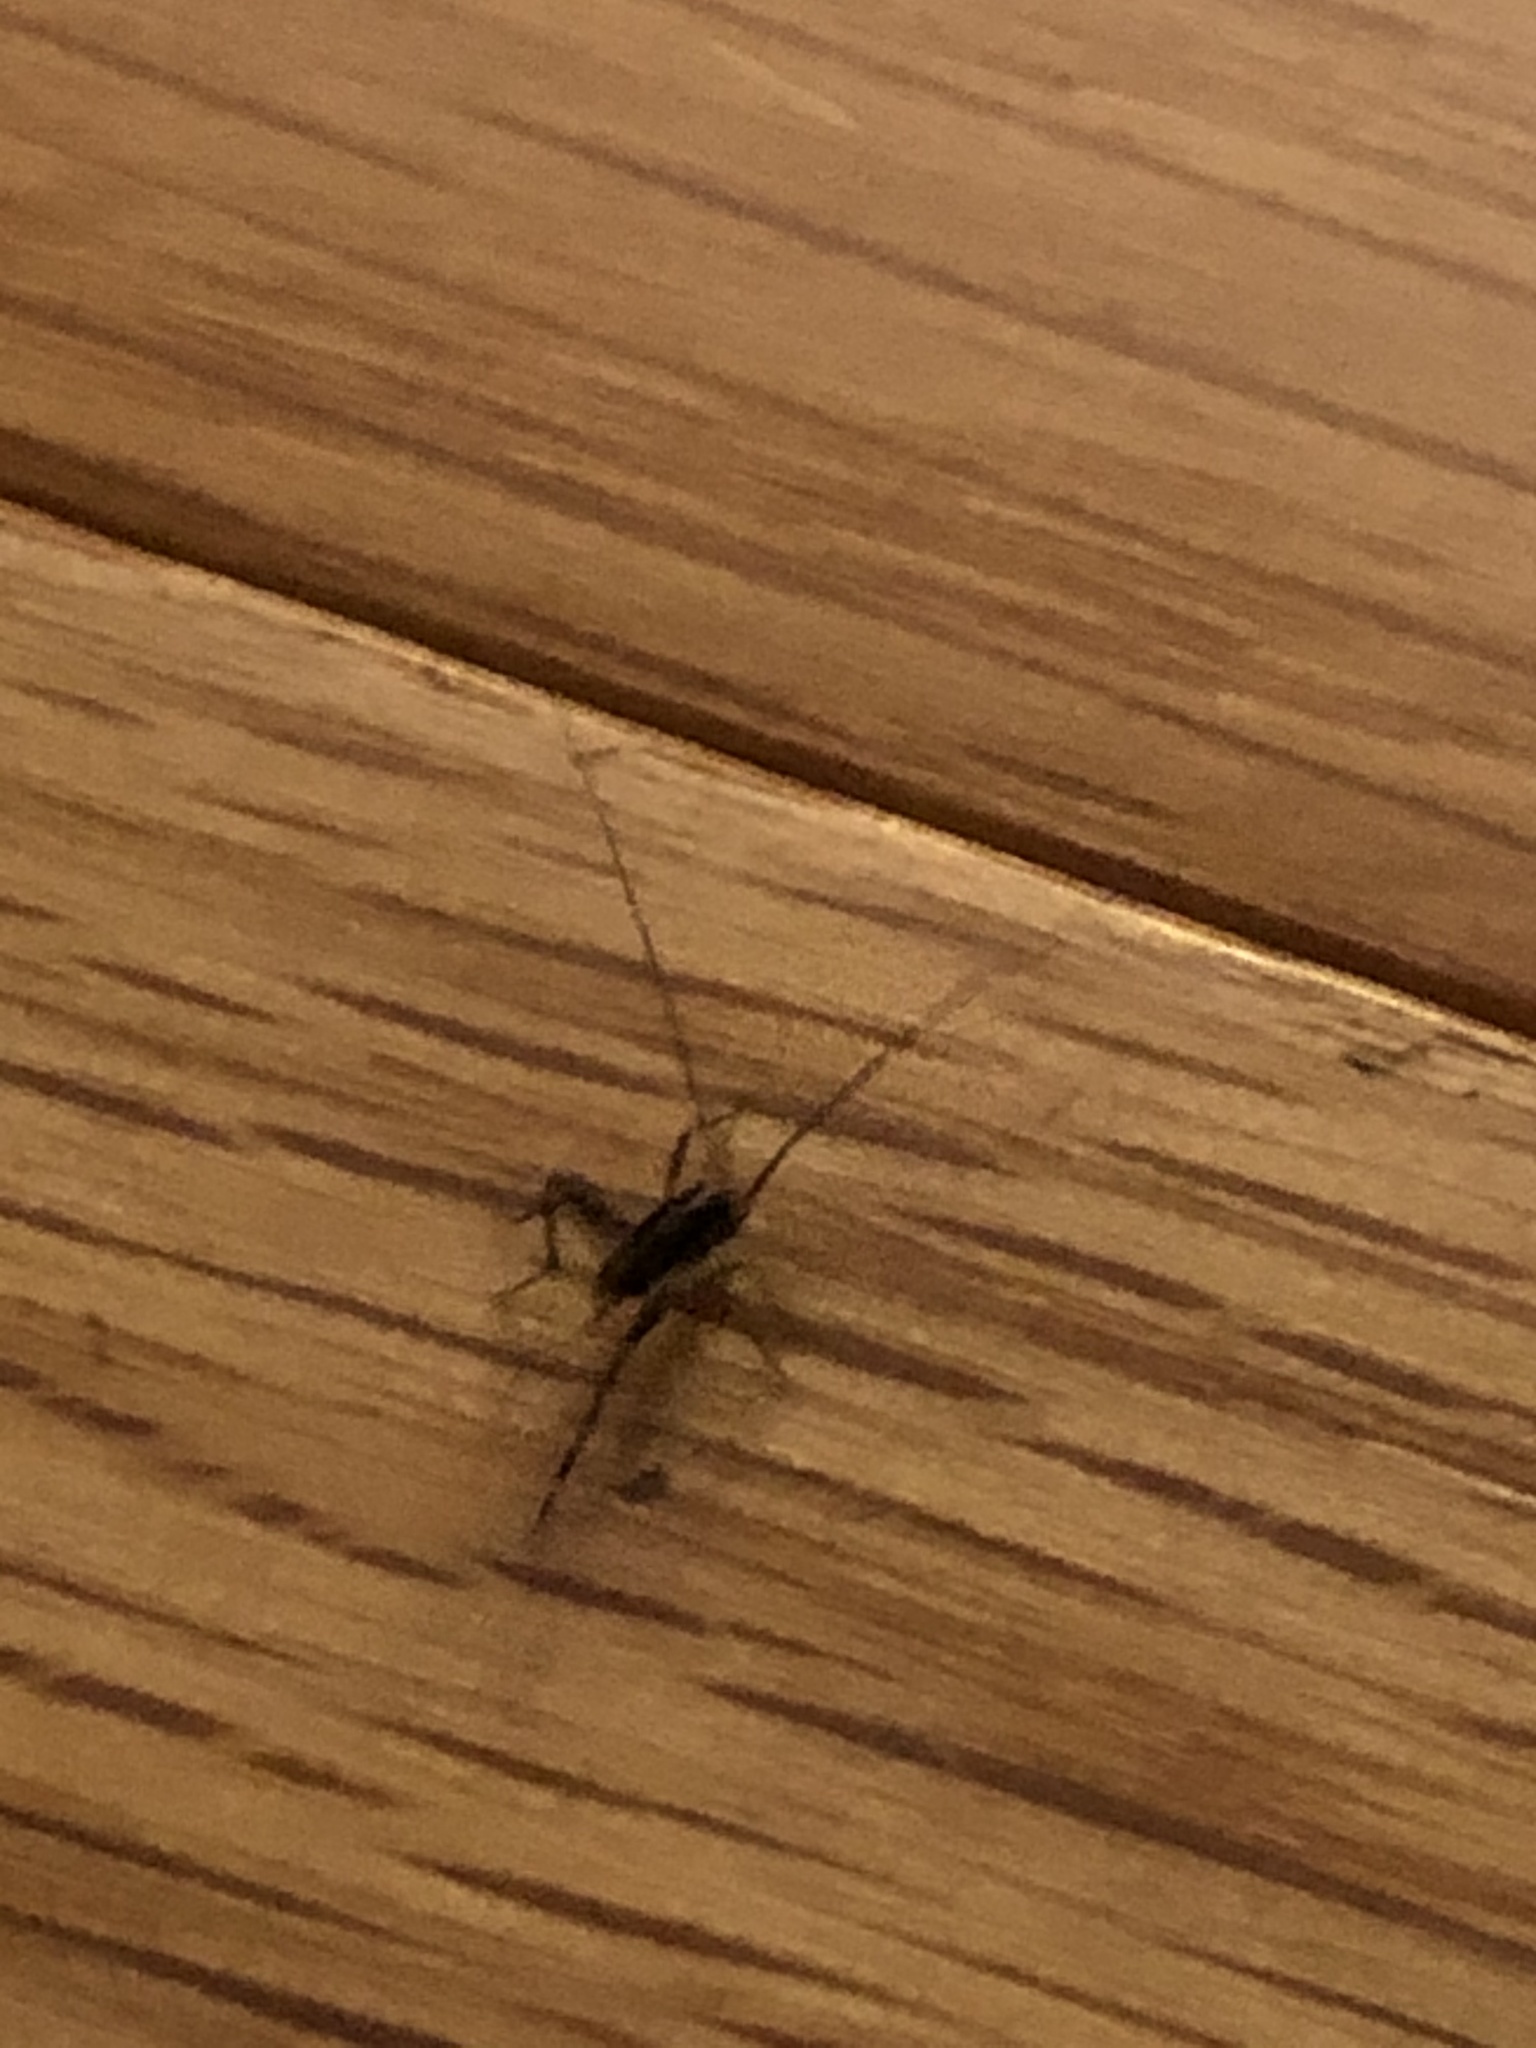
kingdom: Animalia
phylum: Arthropoda
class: Insecta
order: Orthoptera
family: Rhaphidophoridae
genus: Tachycines
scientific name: Tachycines asynamorus
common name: Greenhouse camel cricket
